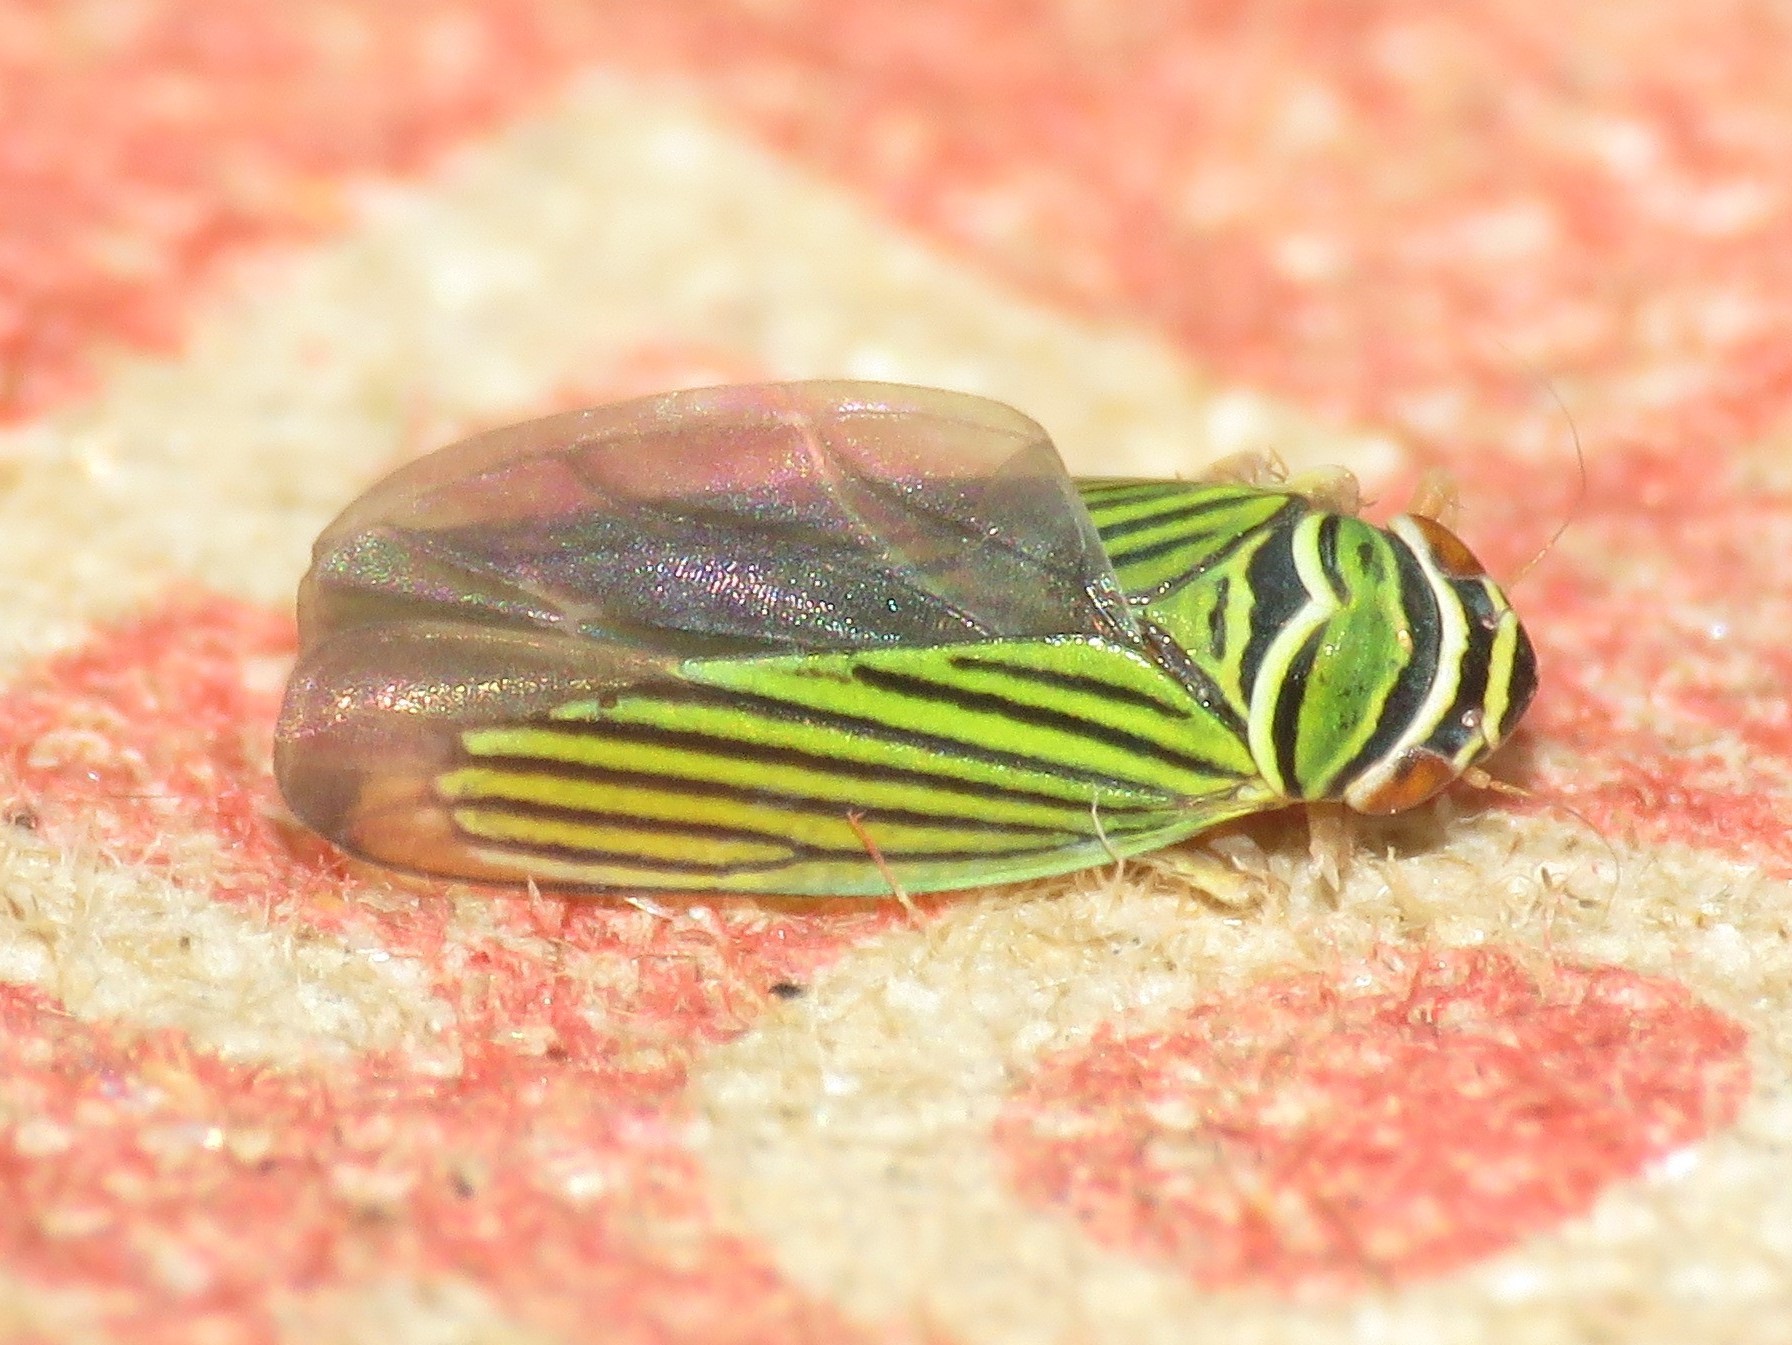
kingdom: Animalia
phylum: Arthropoda
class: Insecta
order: Hemiptera
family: Cicadellidae
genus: Tylozygus
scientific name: Tylozygus bifidus
